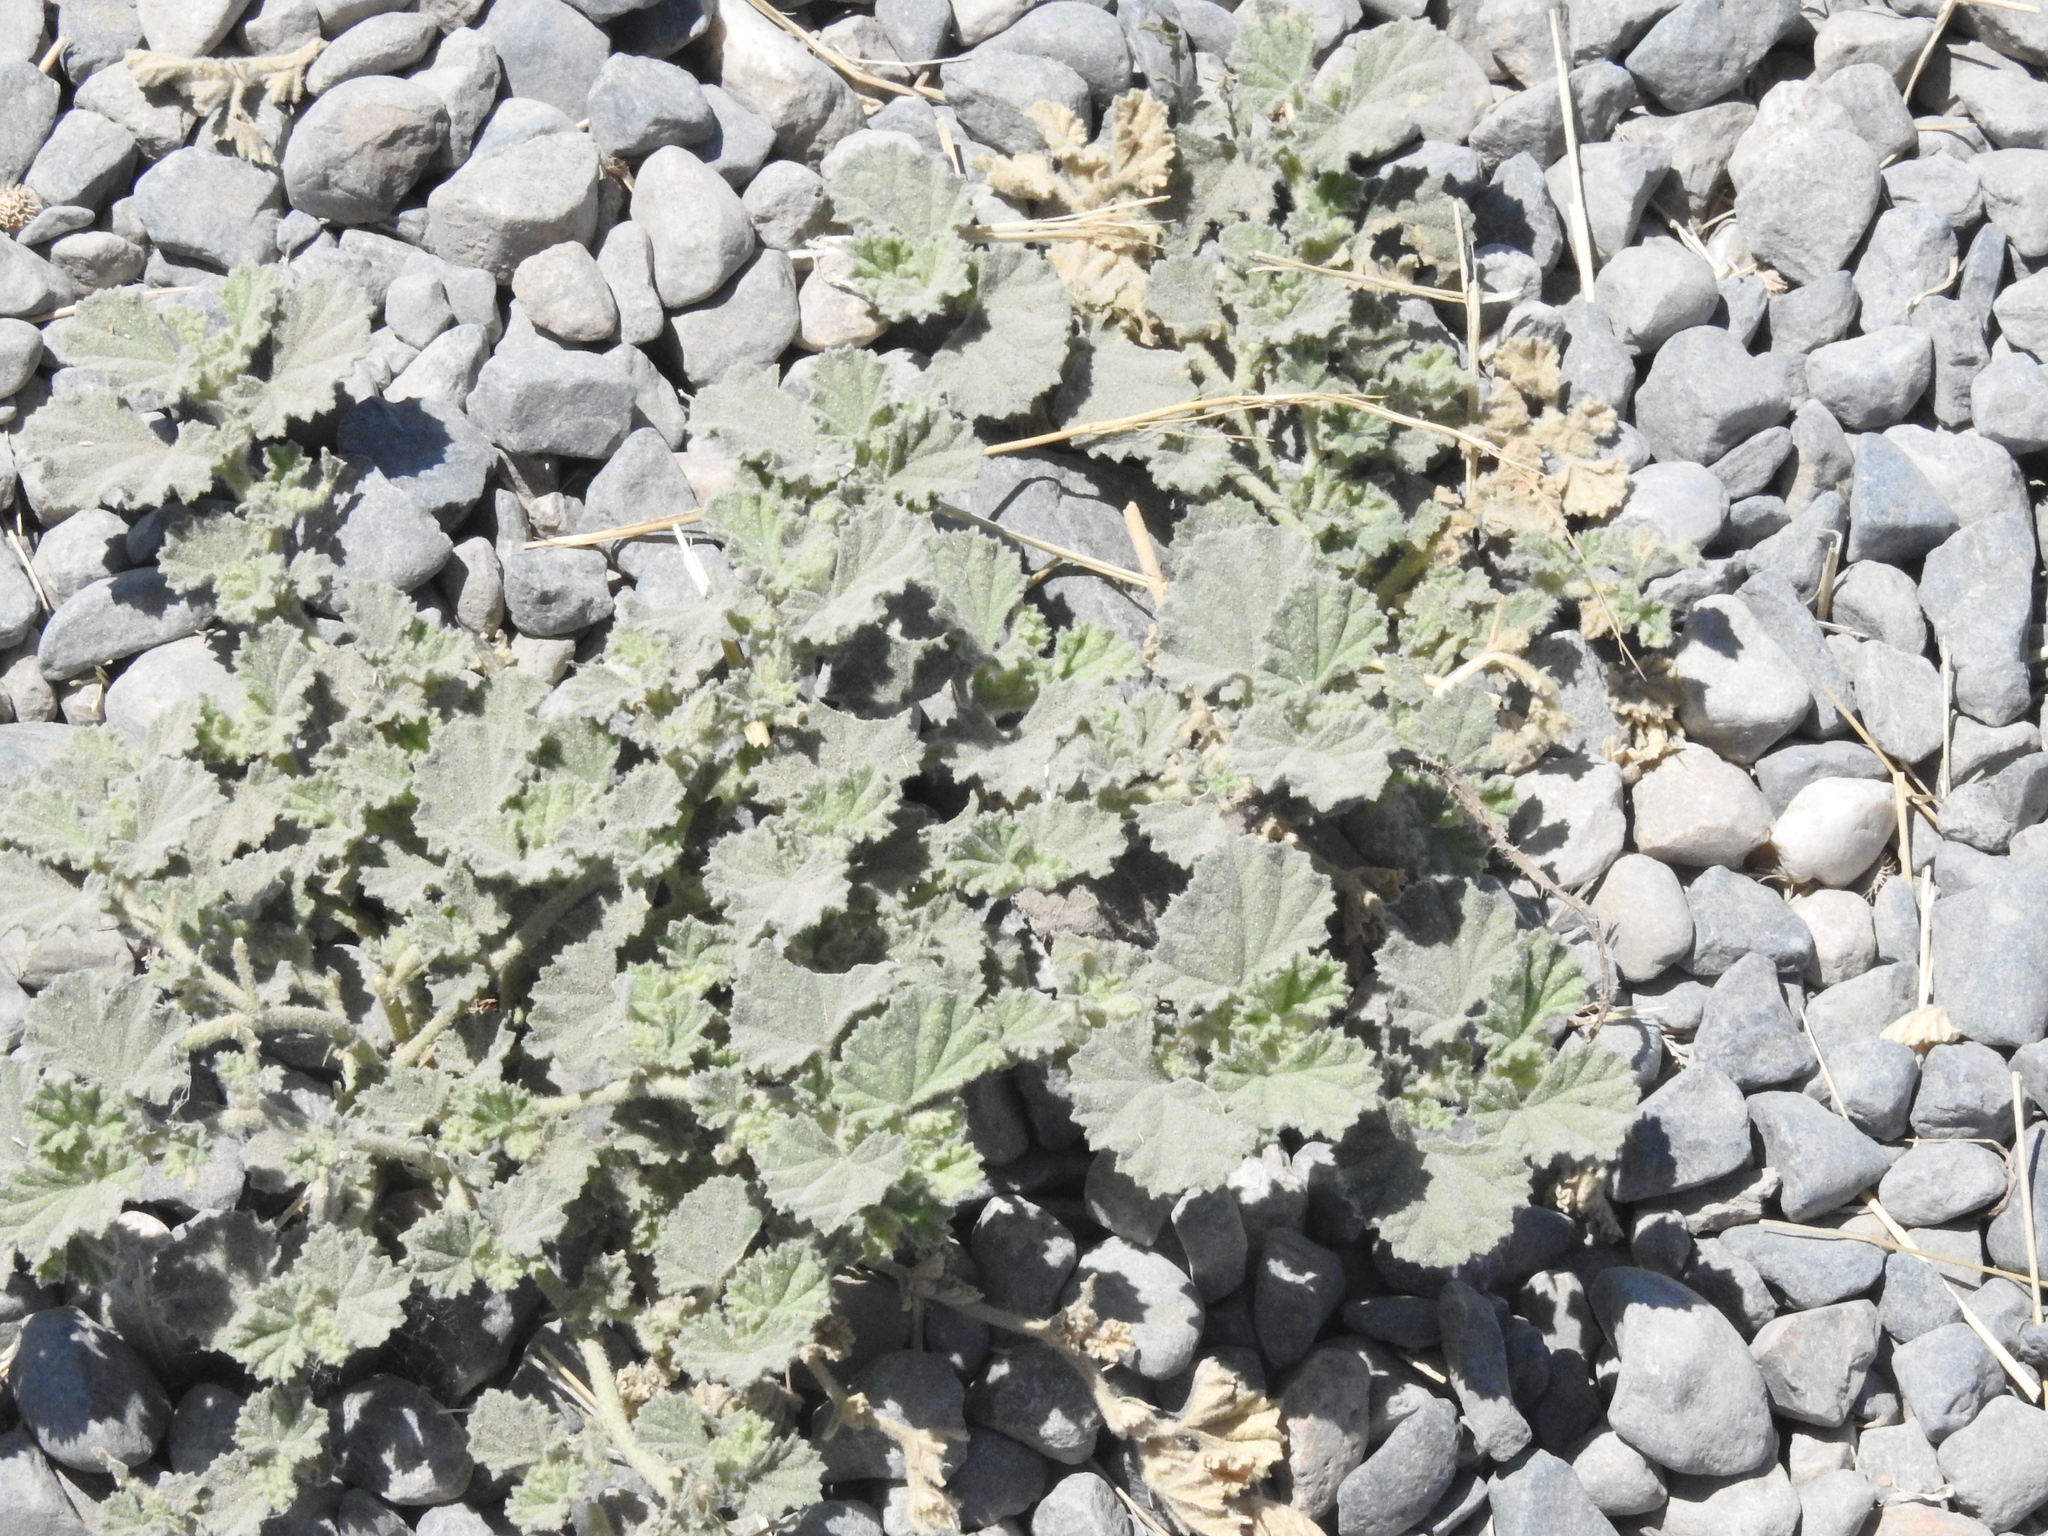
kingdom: Plantae
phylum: Tracheophyta
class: Magnoliopsida
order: Malvales
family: Malvaceae
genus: Malvella
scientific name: Malvella leprosa
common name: Alkali-mallow
